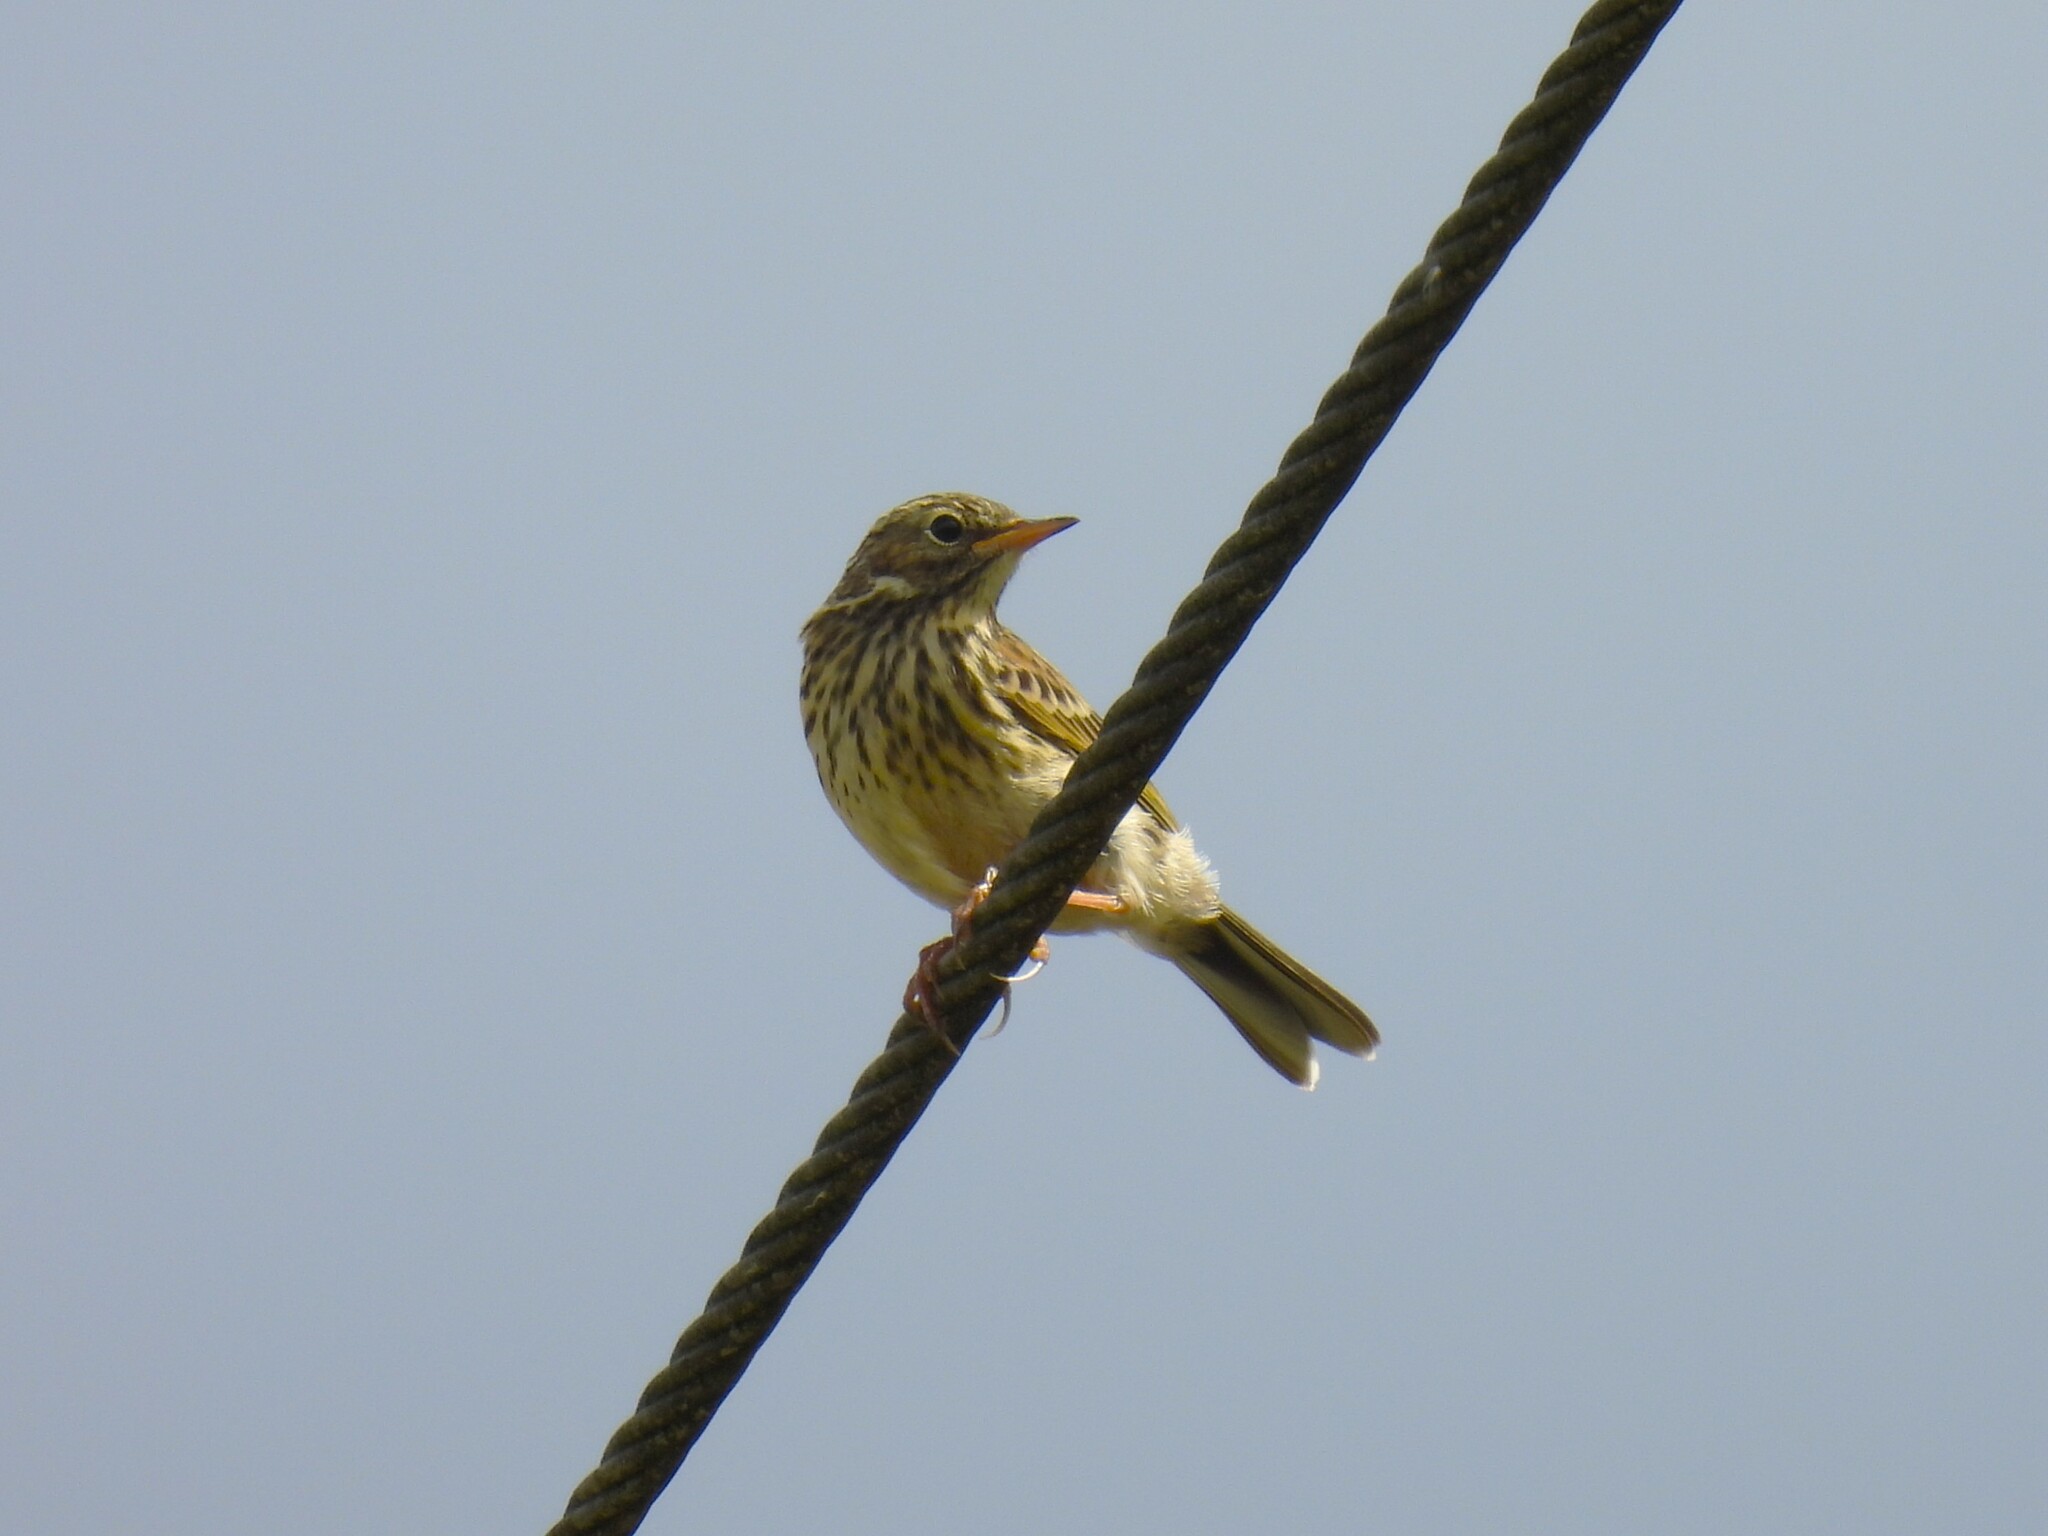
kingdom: Animalia
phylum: Chordata
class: Aves
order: Passeriformes
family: Motacillidae
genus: Anthus
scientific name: Anthus pratensis
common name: Meadow pipit
